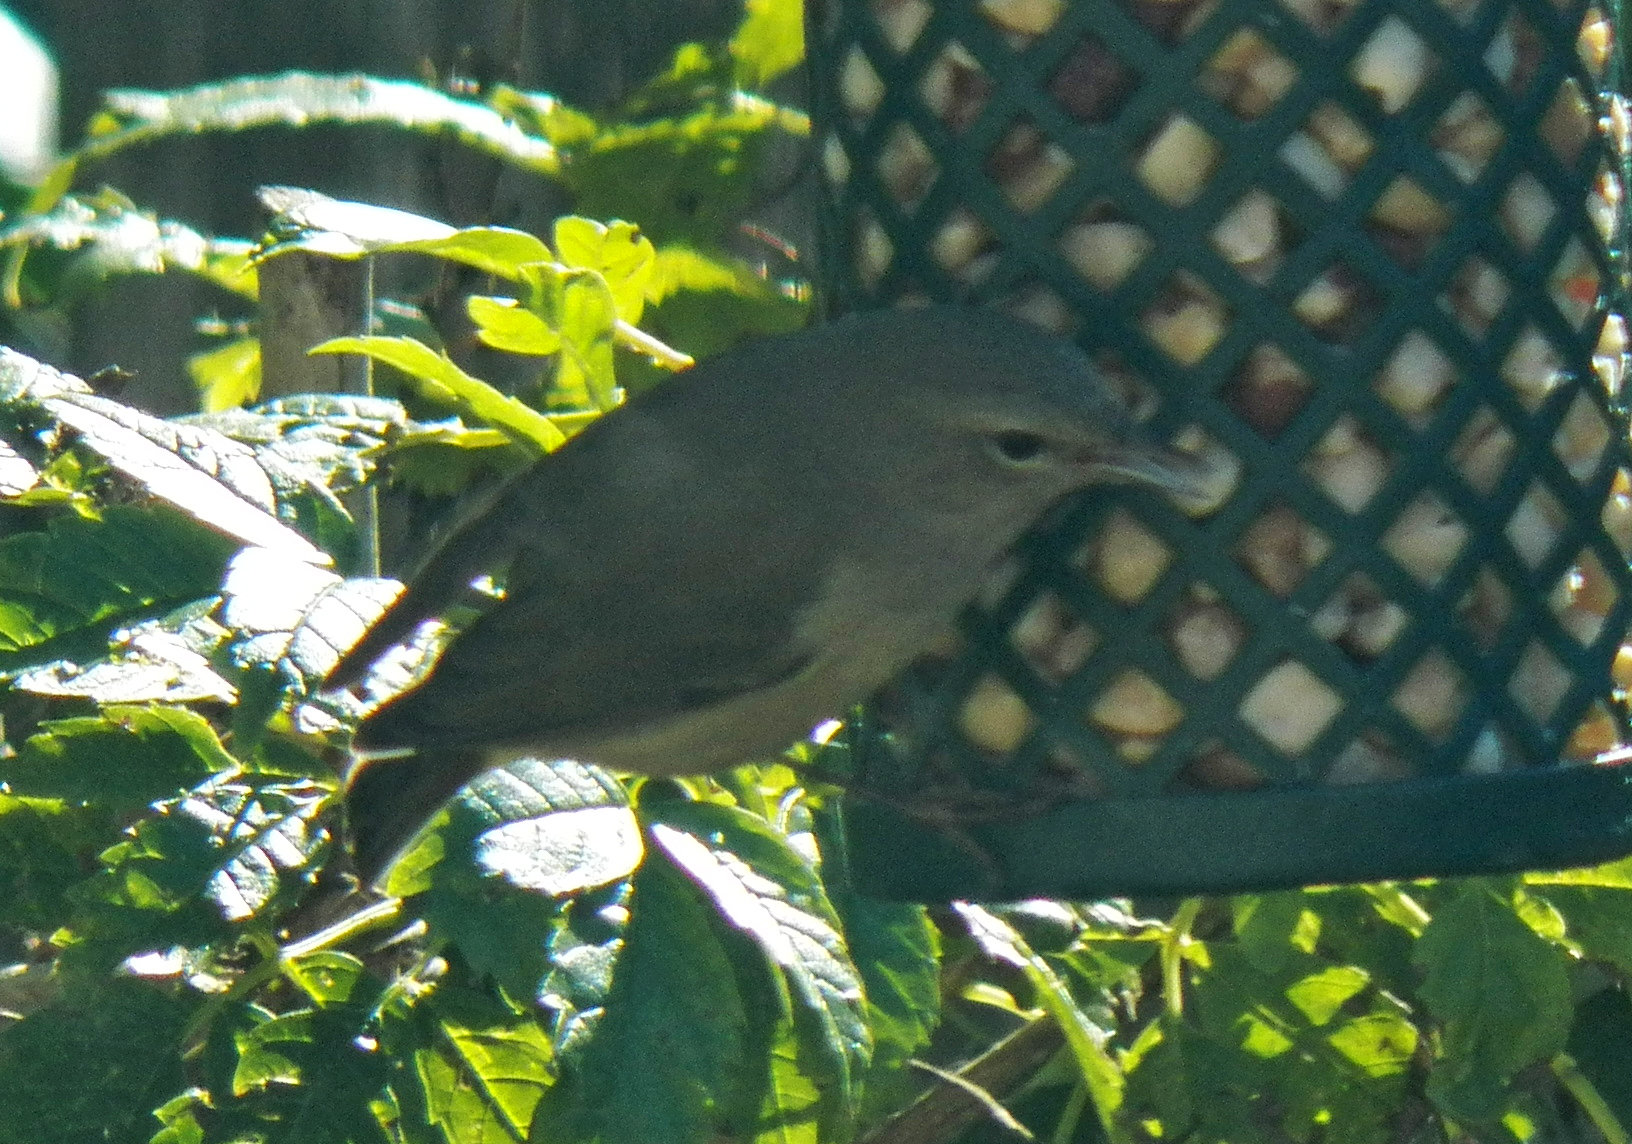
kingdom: Animalia
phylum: Chordata
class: Aves
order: Passeriformes
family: Parulidae
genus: Leiothlypis
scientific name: Leiothlypis celata
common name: Orange-crowned warbler
